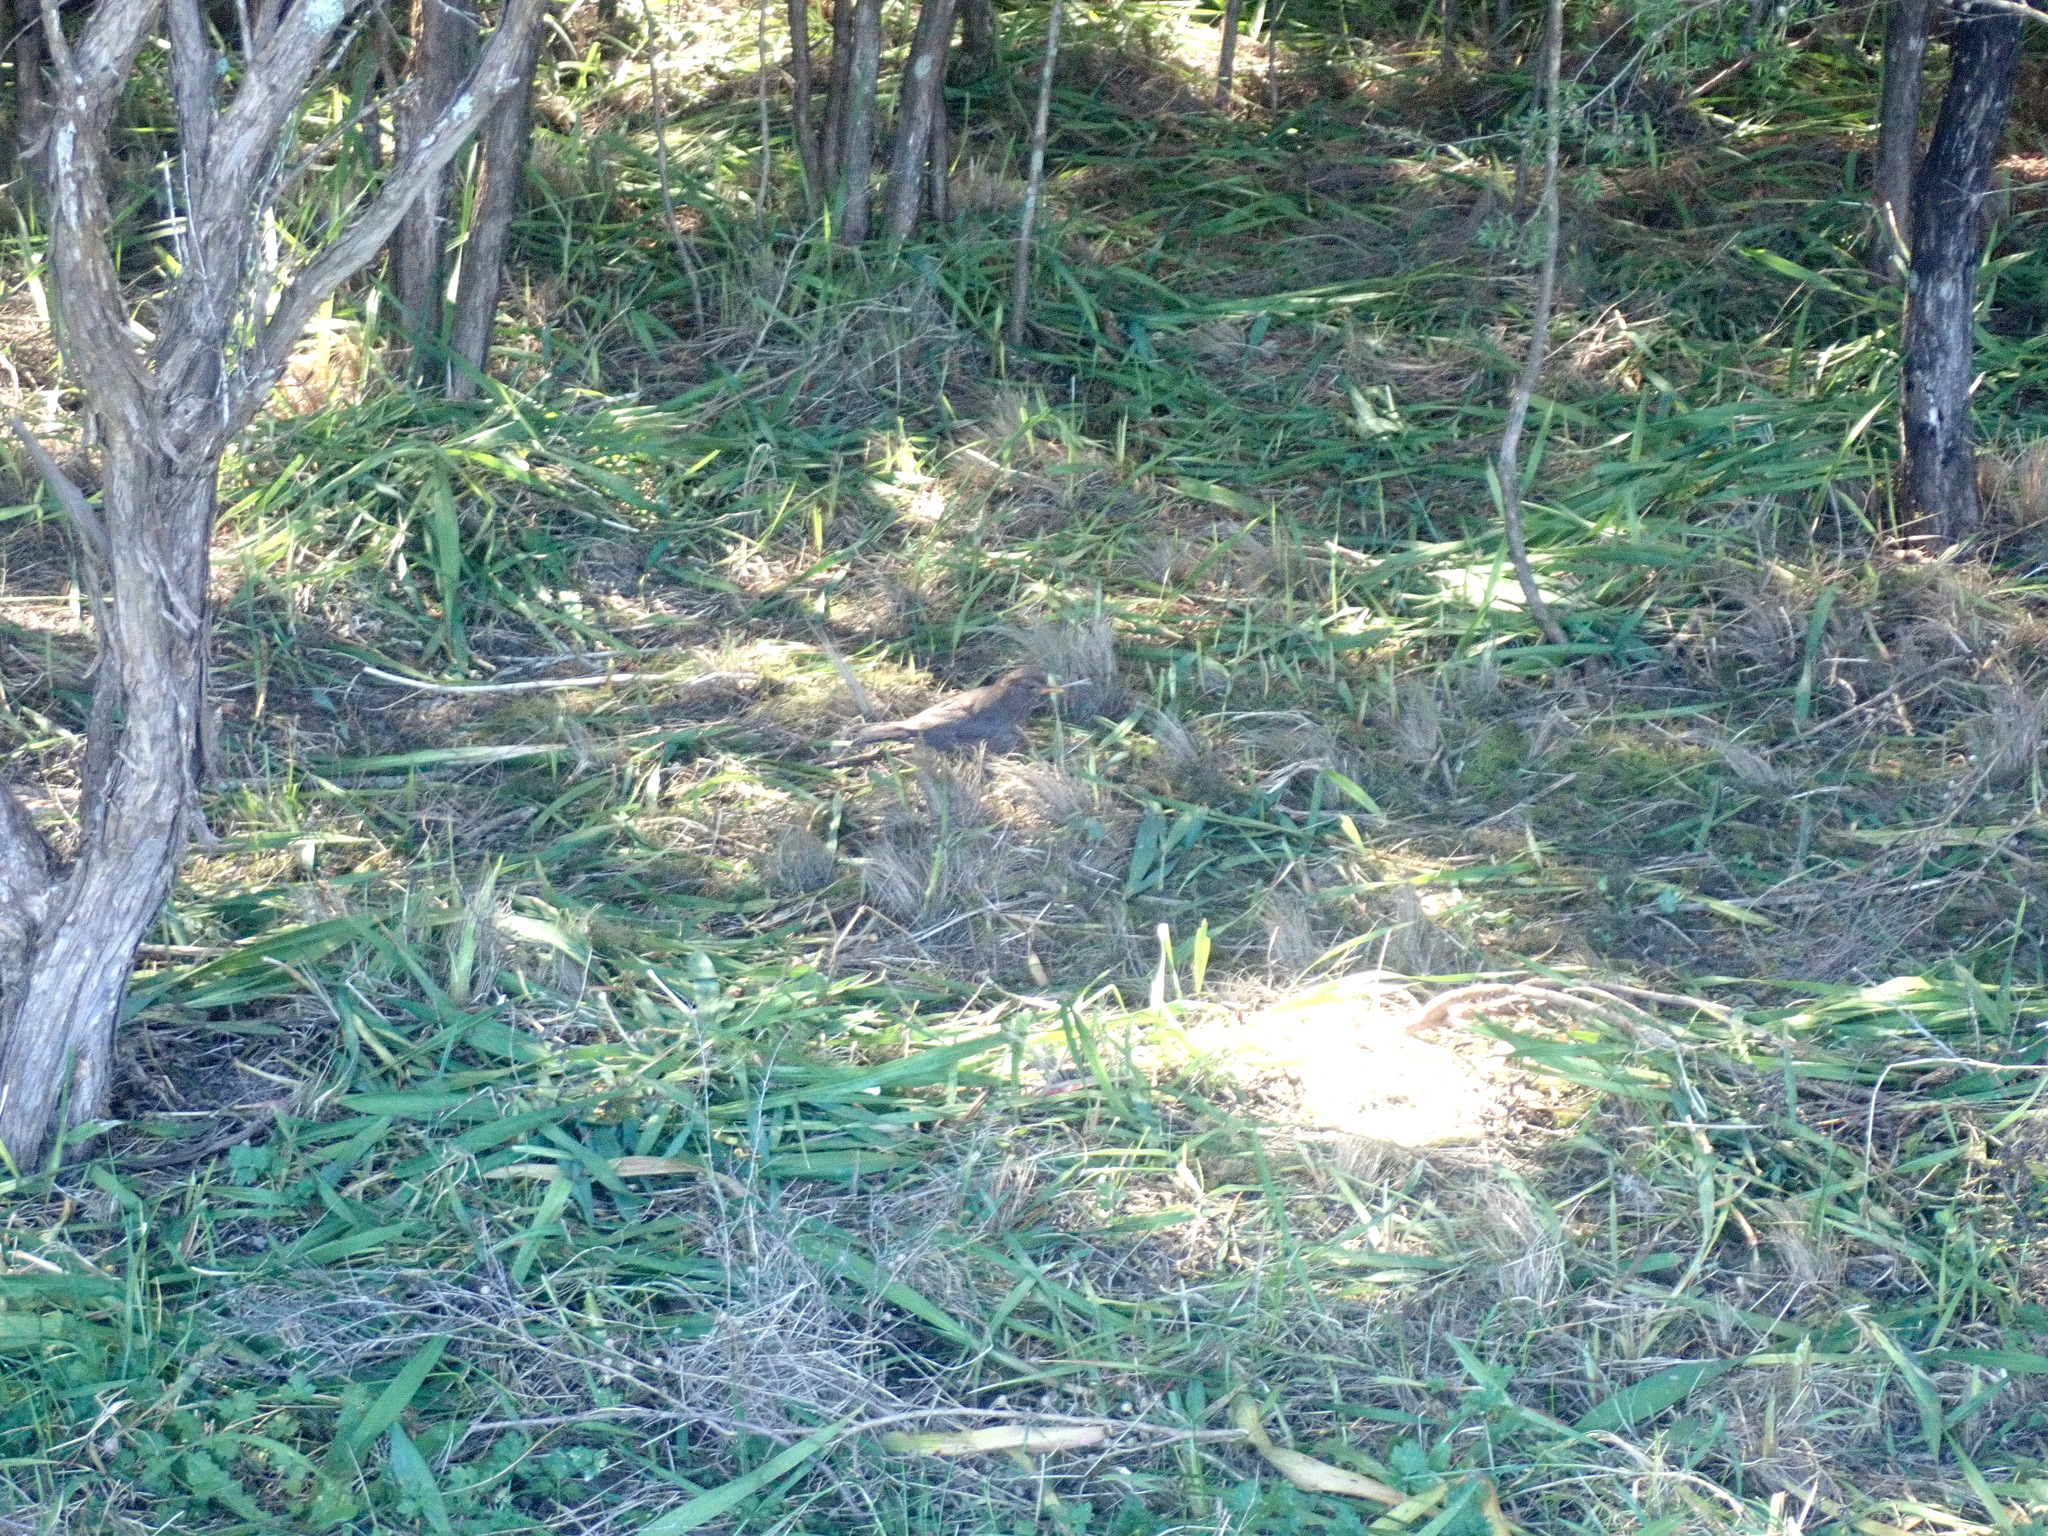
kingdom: Animalia
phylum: Chordata
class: Aves
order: Passeriformes
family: Turdidae
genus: Turdus
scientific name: Turdus merula
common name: Common blackbird
